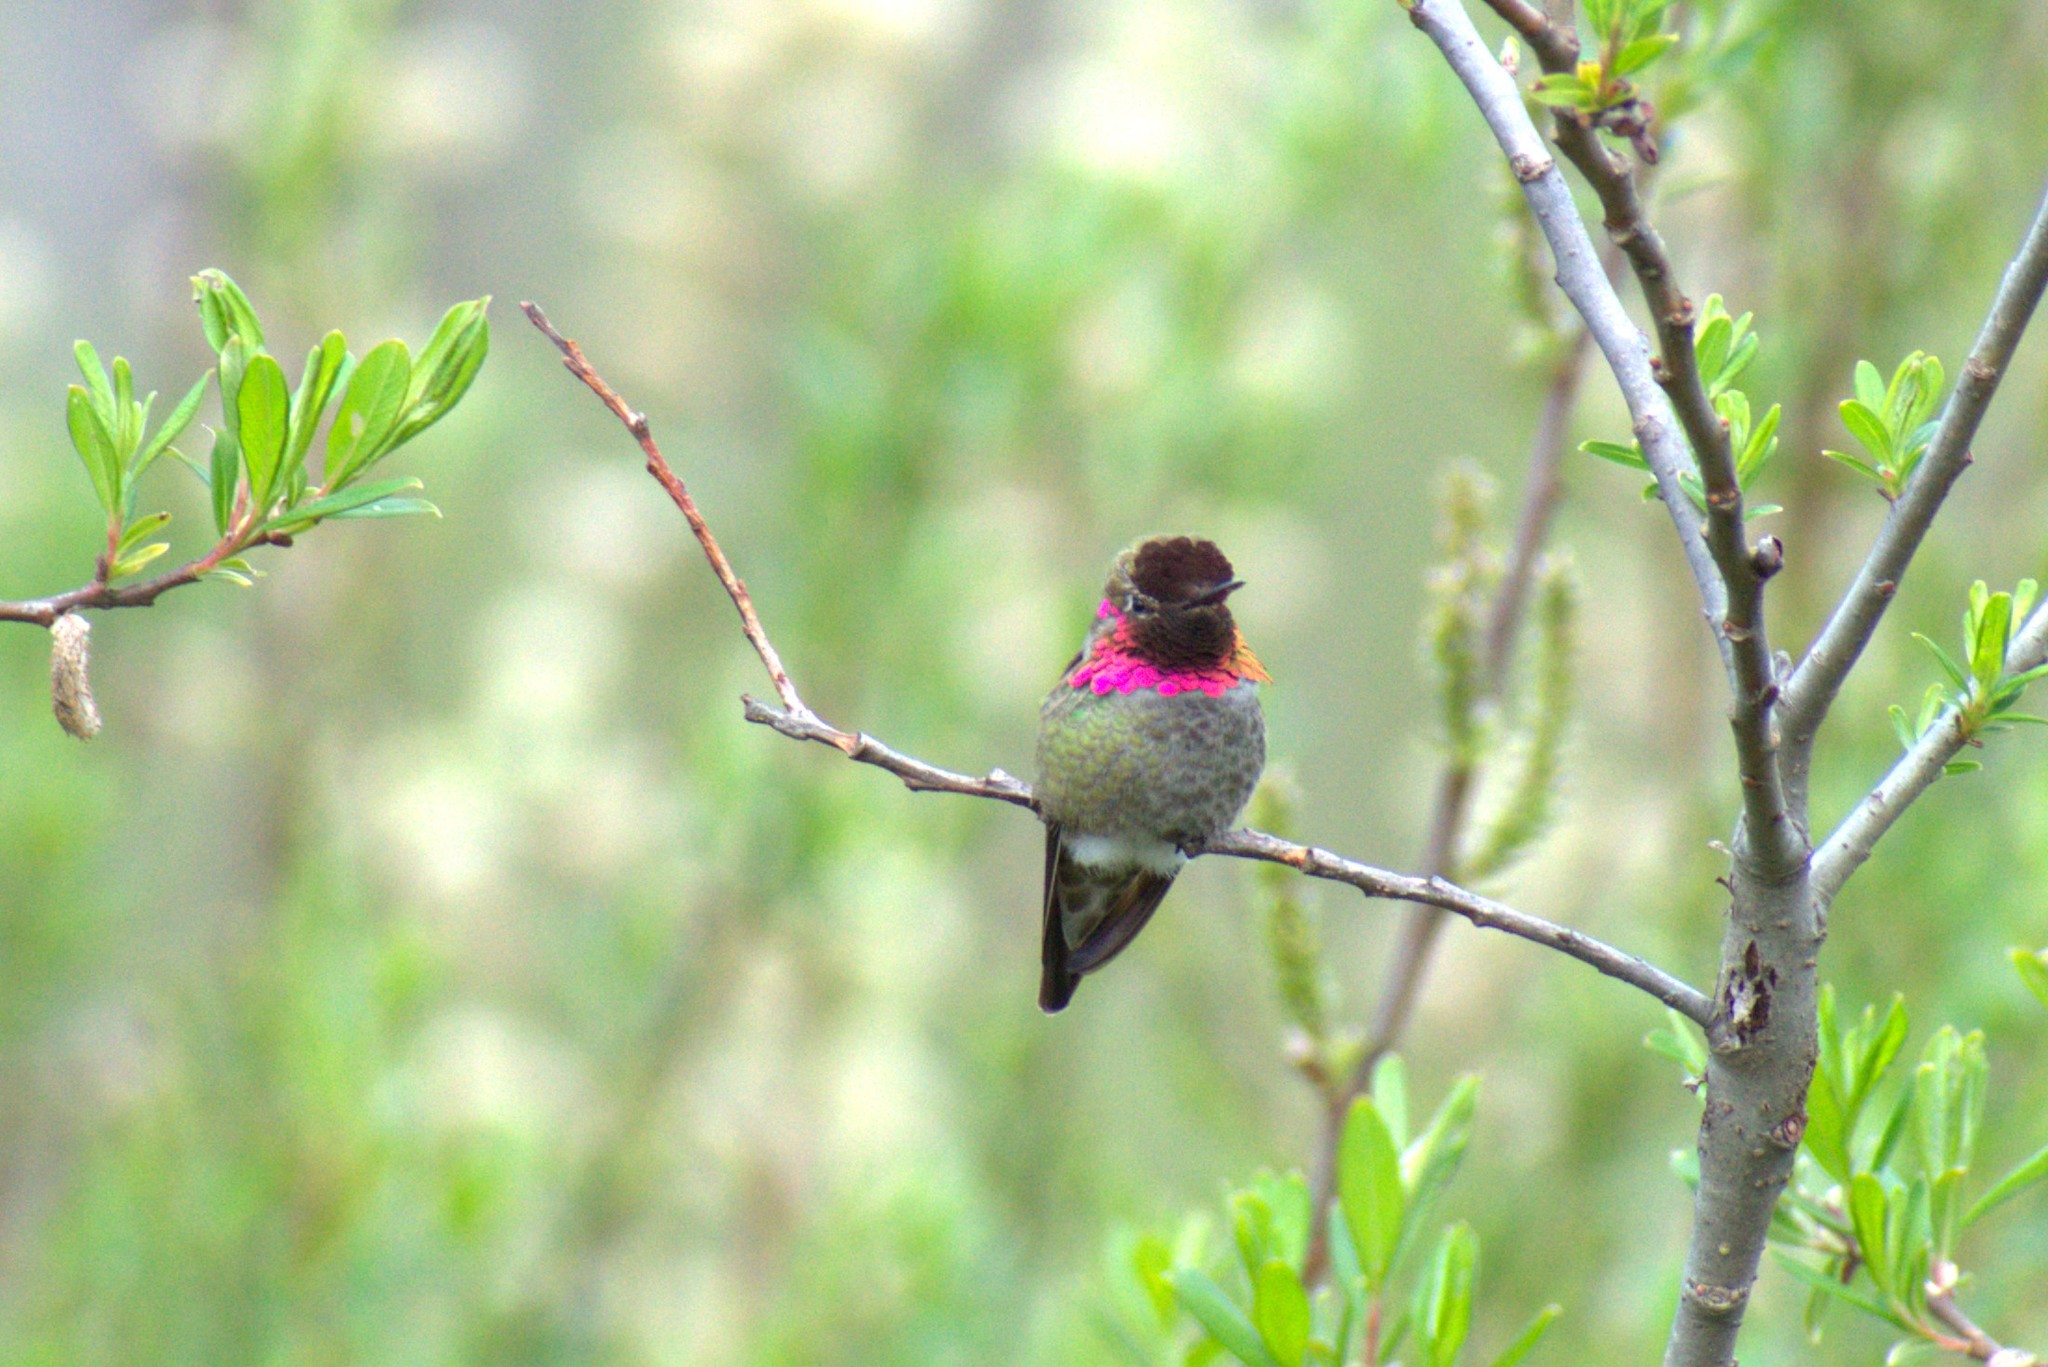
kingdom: Animalia
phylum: Chordata
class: Aves
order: Apodiformes
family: Trochilidae
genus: Calypte
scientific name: Calypte anna
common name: Anna's hummingbird
